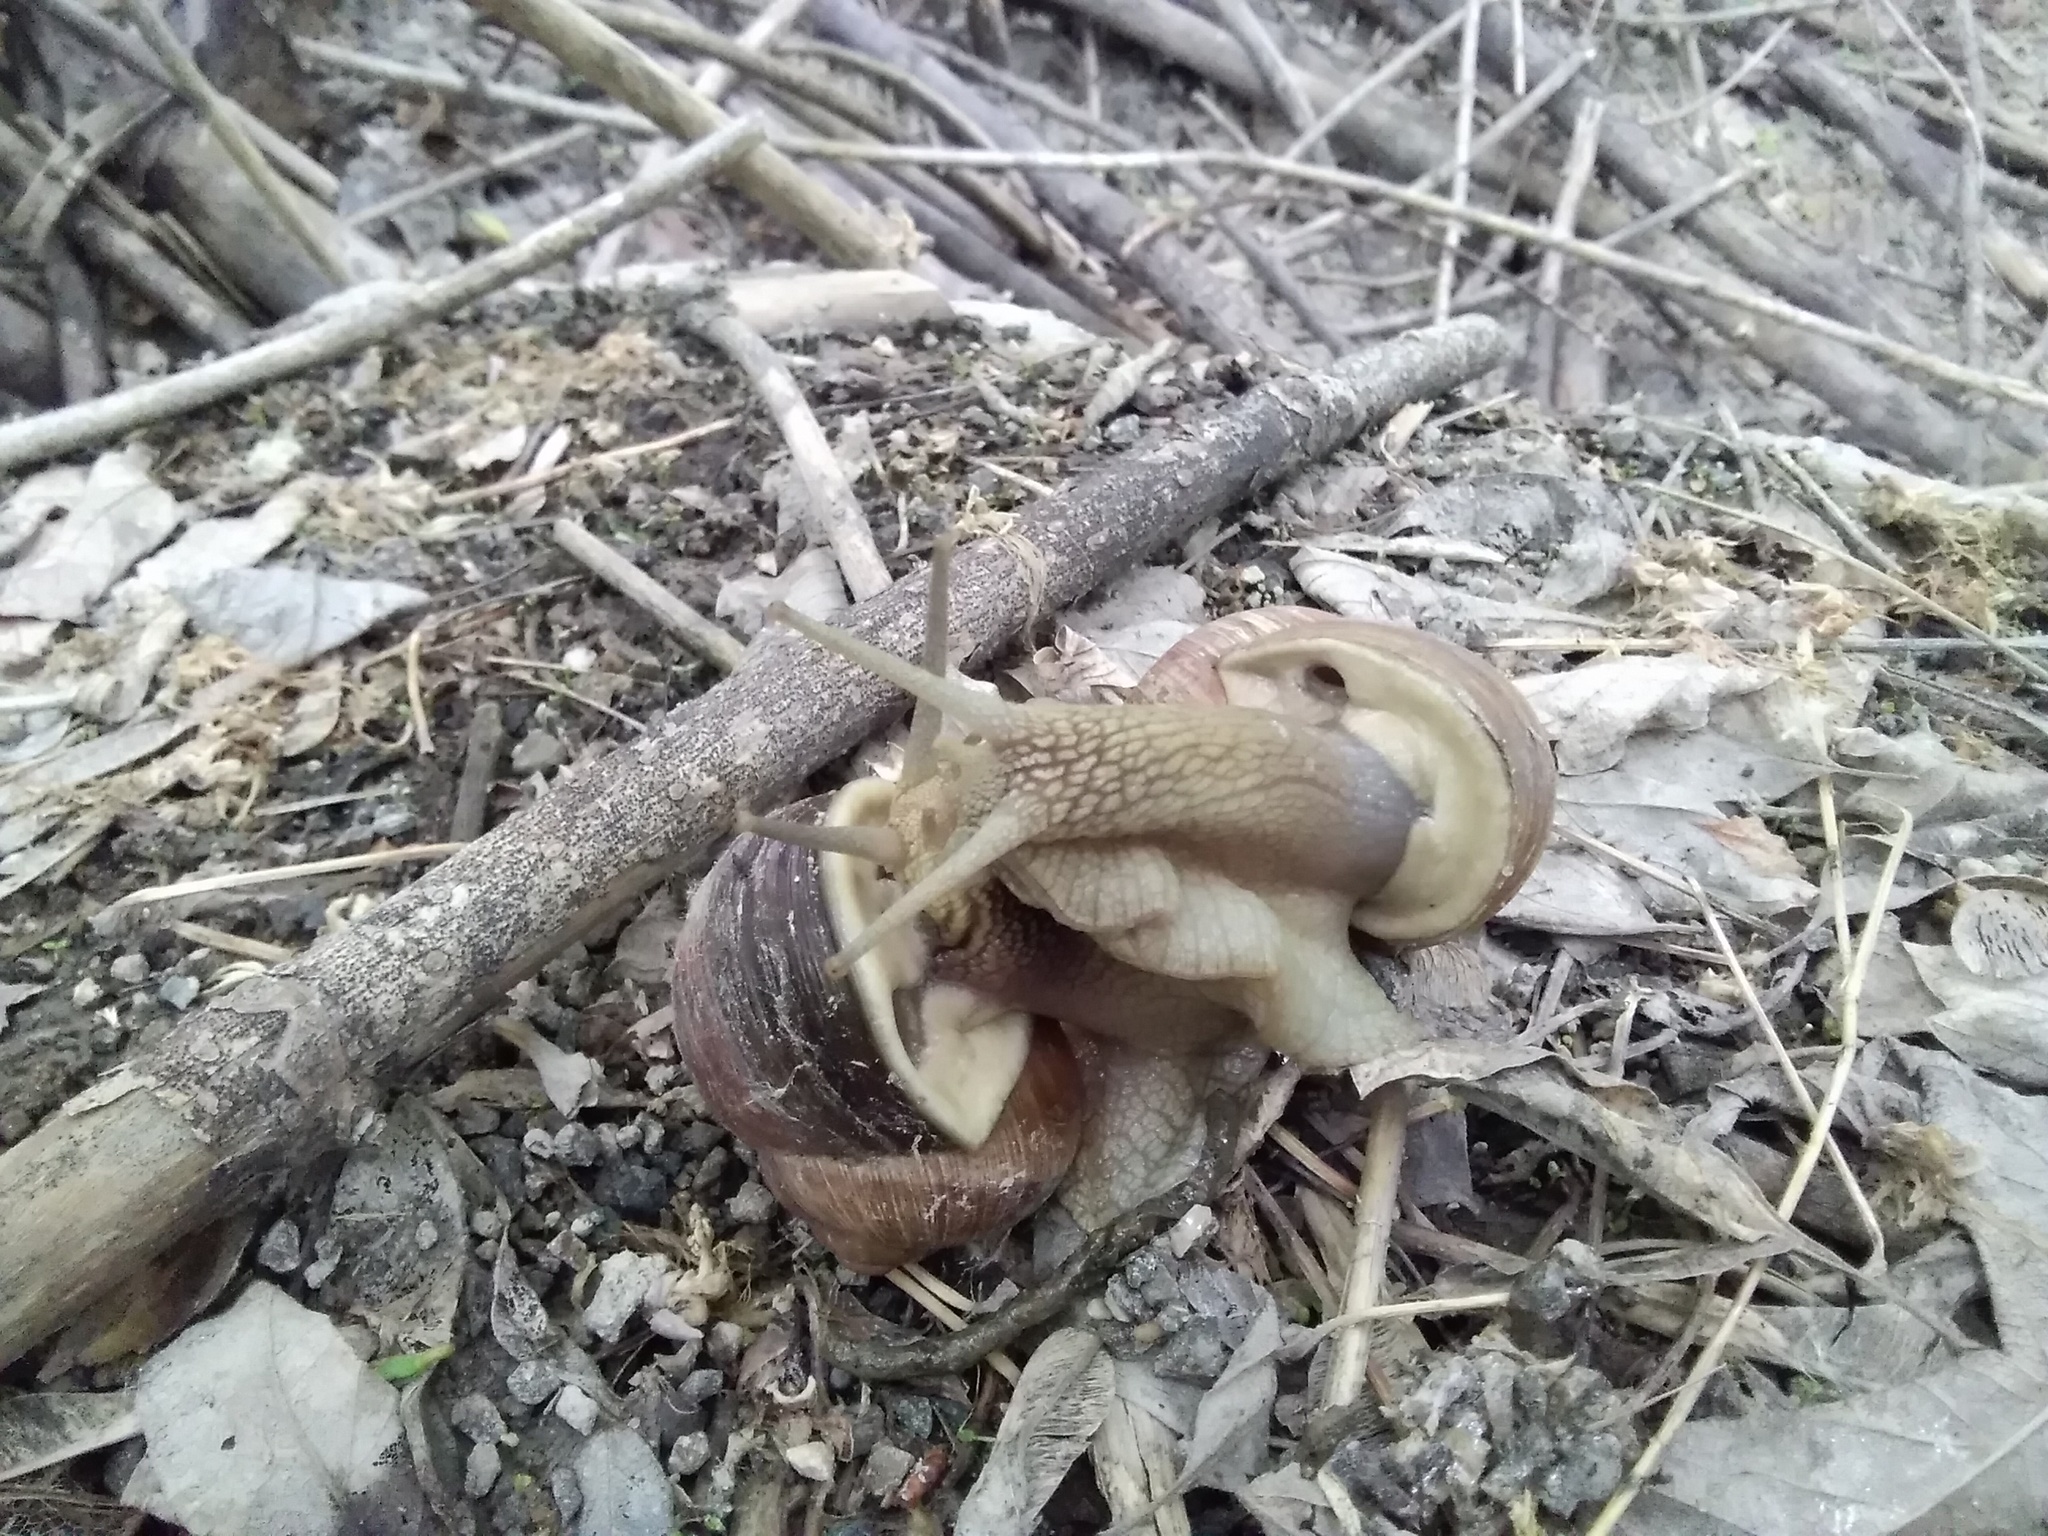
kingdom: Animalia
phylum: Mollusca
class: Gastropoda
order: Stylommatophora
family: Helicidae
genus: Helix
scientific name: Helix pomatia
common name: Roman snail
